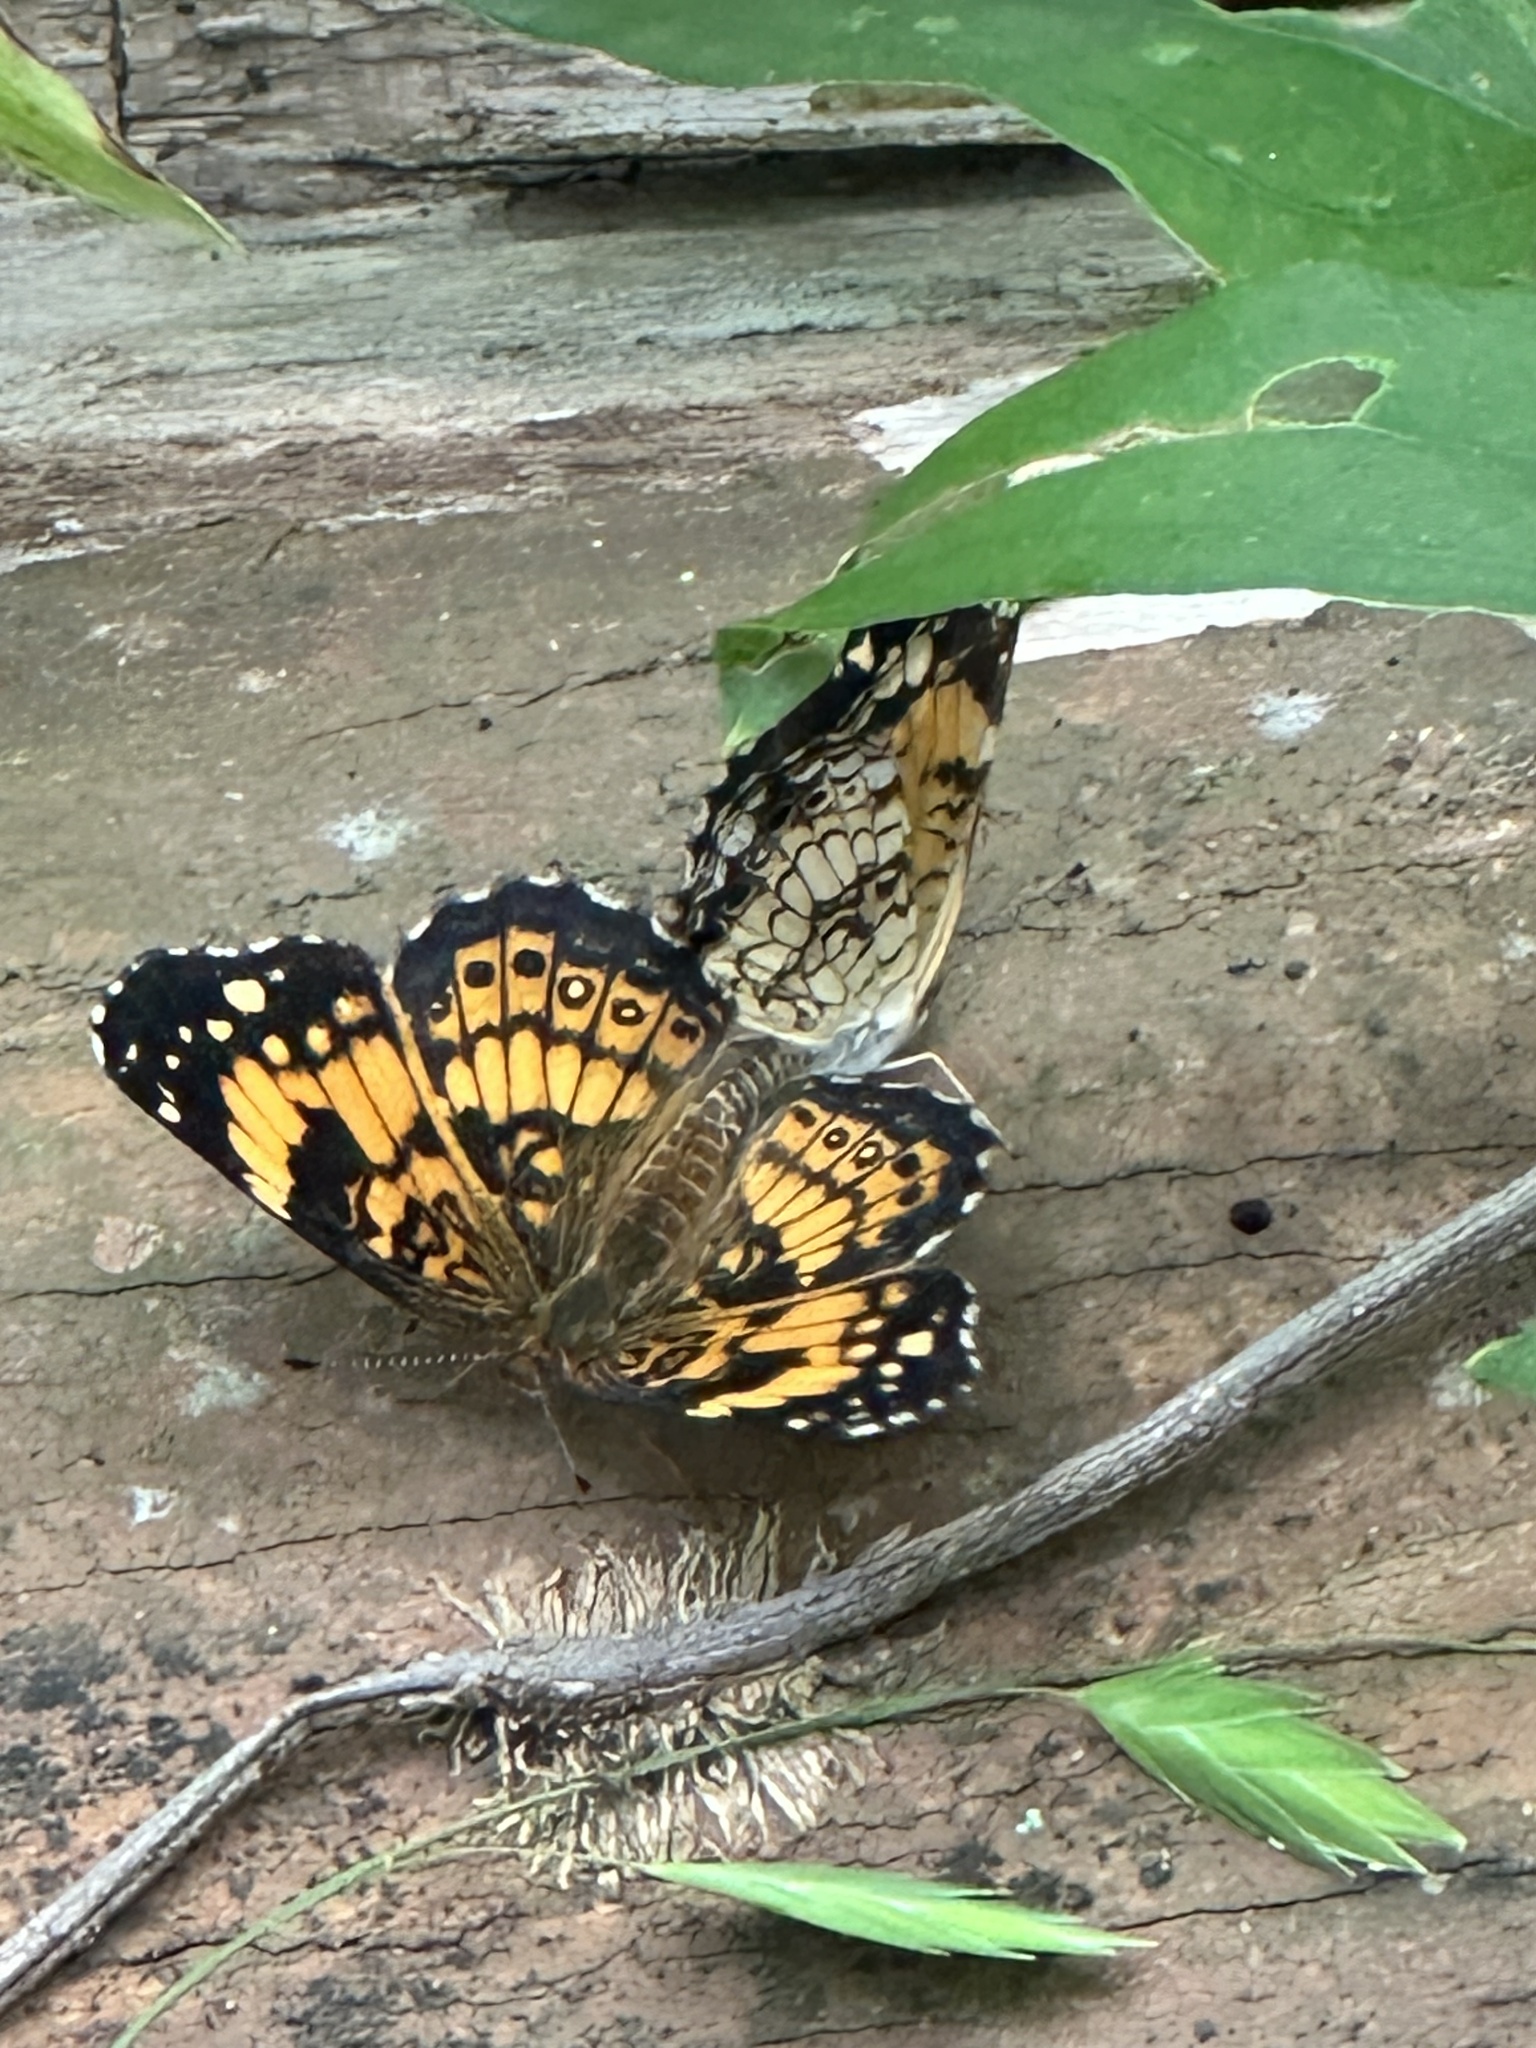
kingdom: Animalia
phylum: Arthropoda
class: Insecta
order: Lepidoptera
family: Nymphalidae
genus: Chlosyne
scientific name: Chlosyne nycteis
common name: Silvery checkerspot
